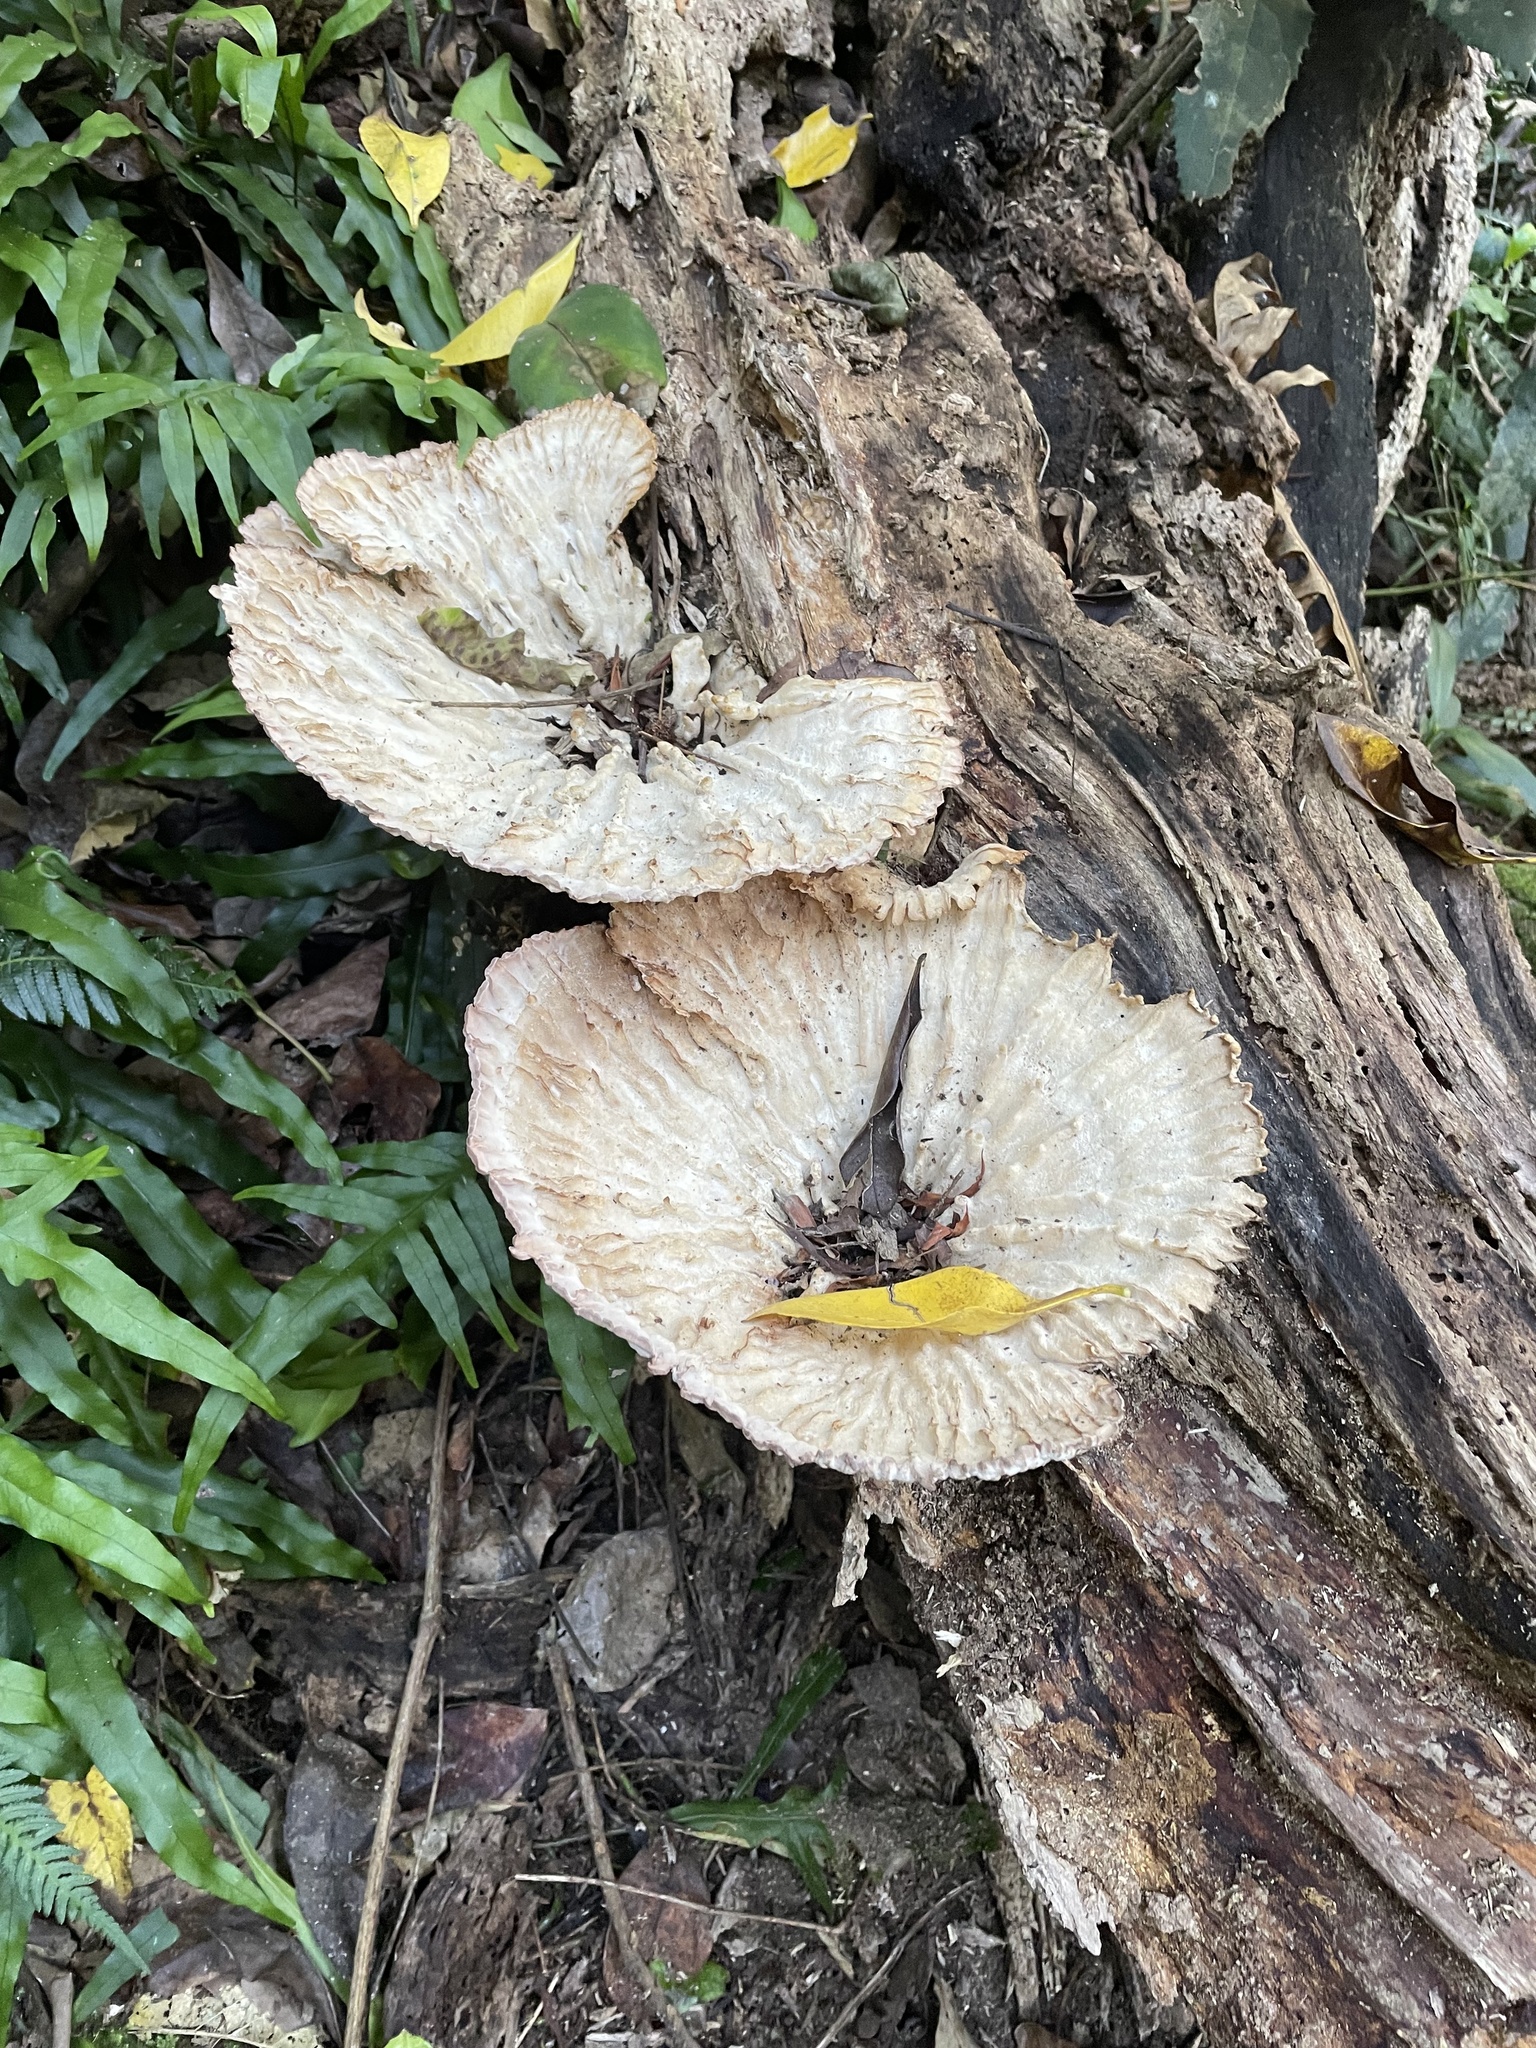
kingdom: Fungi
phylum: Basidiomycota
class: Agaricomycetes
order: Polyporales
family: Panaceae
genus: Cymatoderma
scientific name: Cymatoderma elegans
